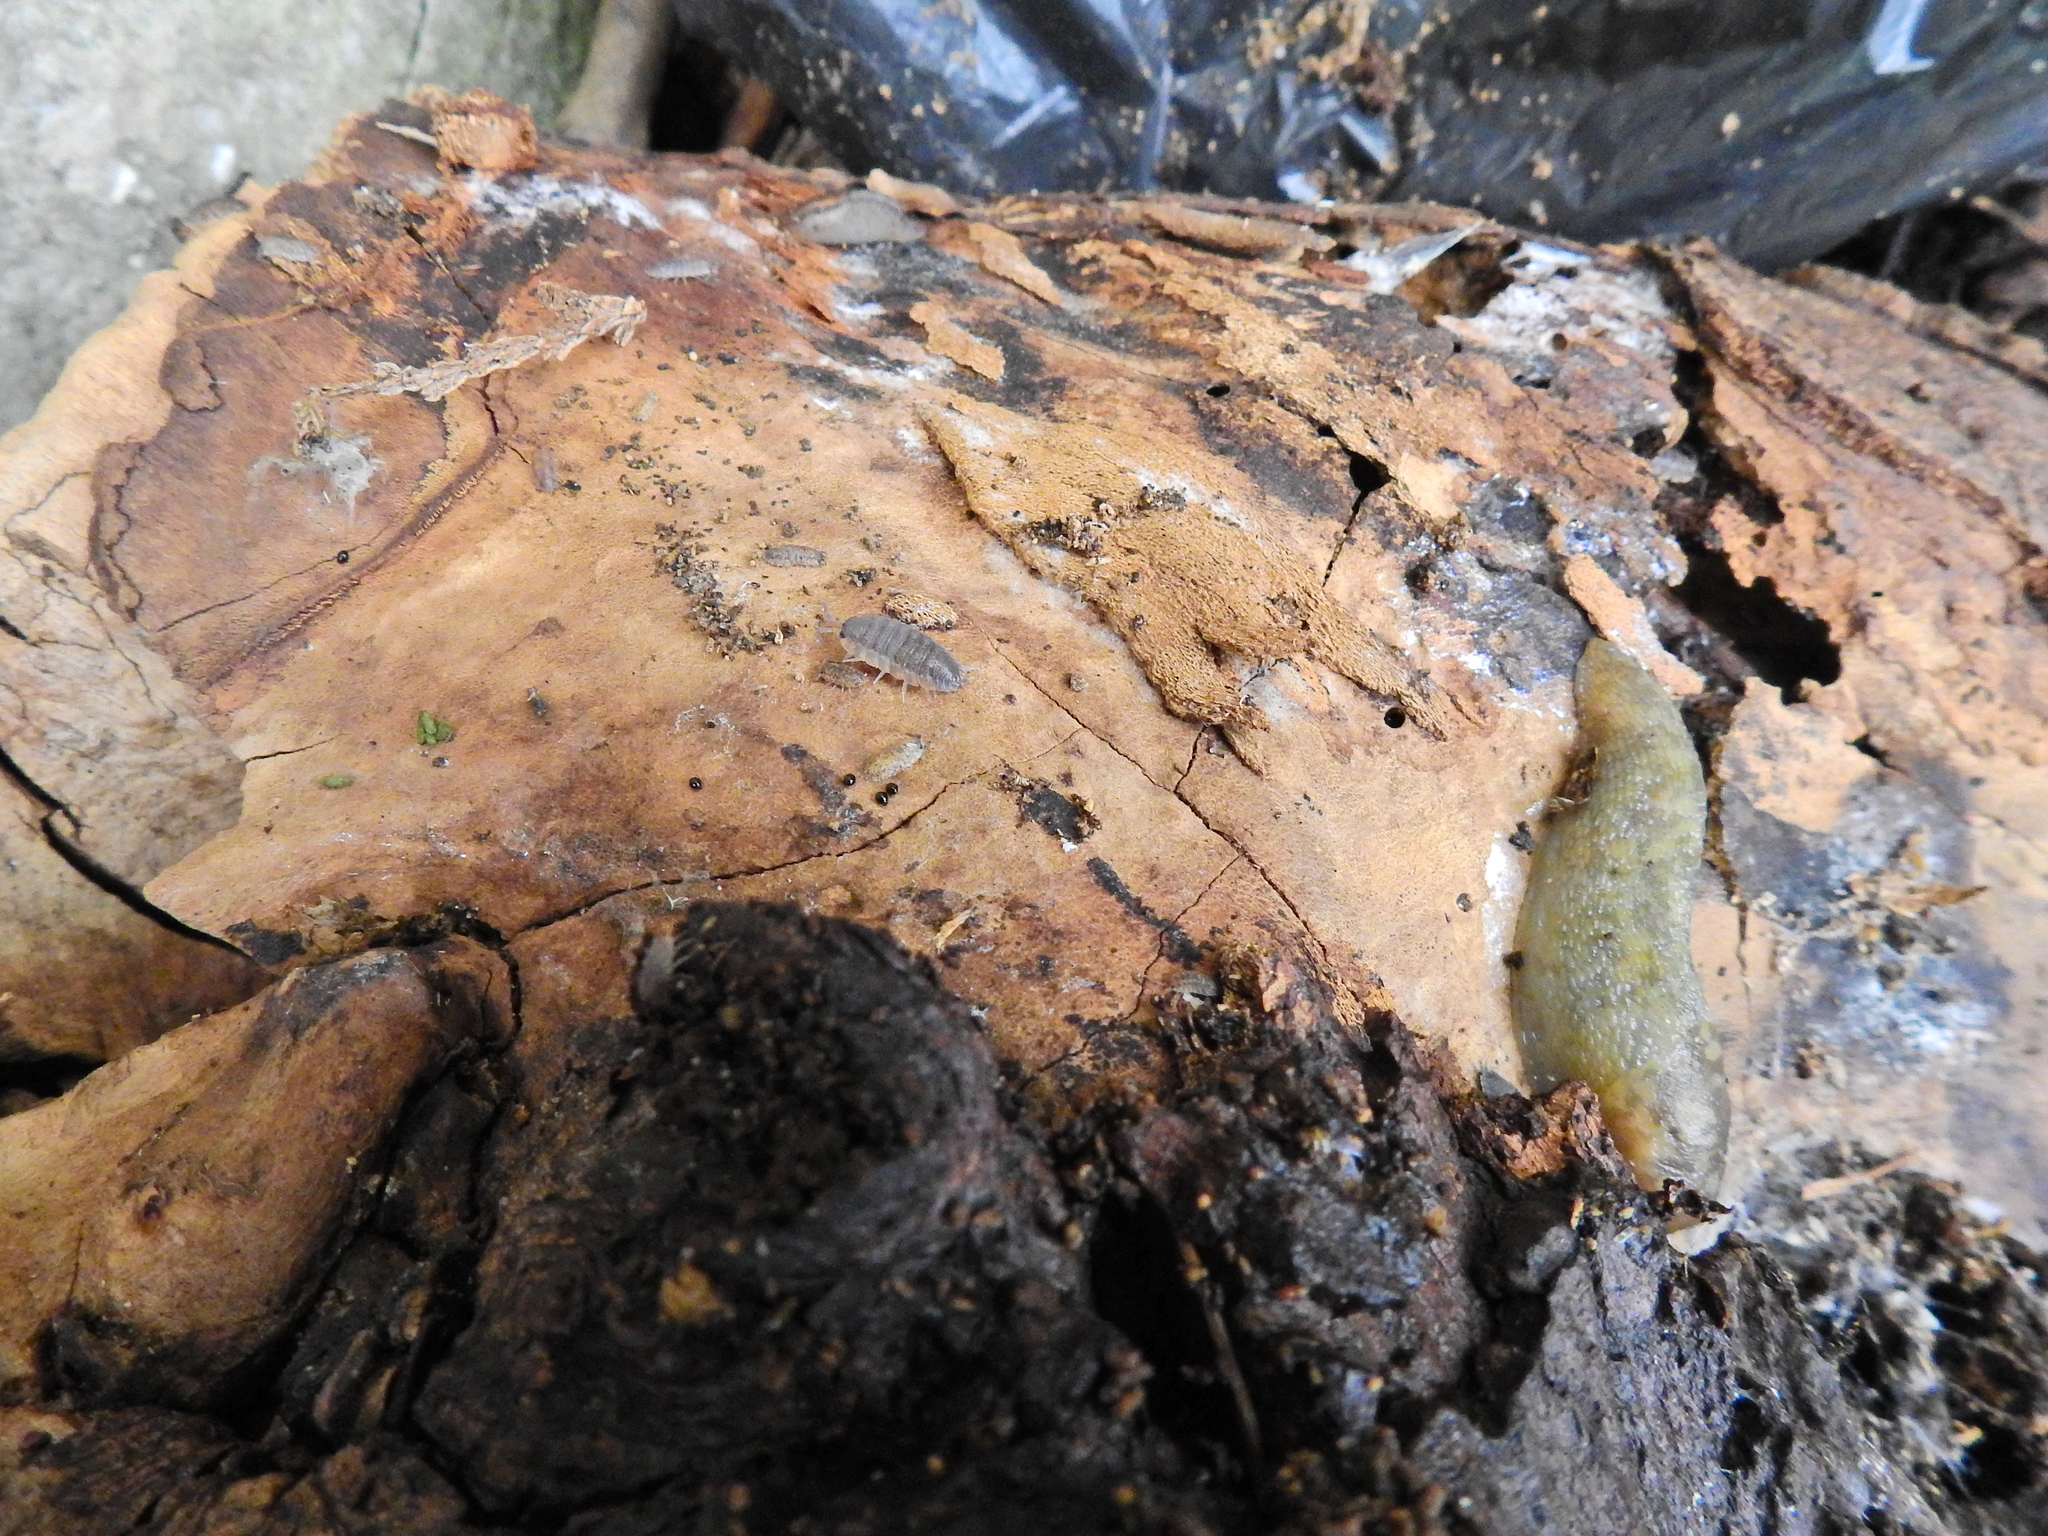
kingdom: Animalia
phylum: Arthropoda
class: Malacostraca
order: Isopoda
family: Porcellionidae
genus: Porcellio
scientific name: Porcellio scaber
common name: Common rough woodlouse
